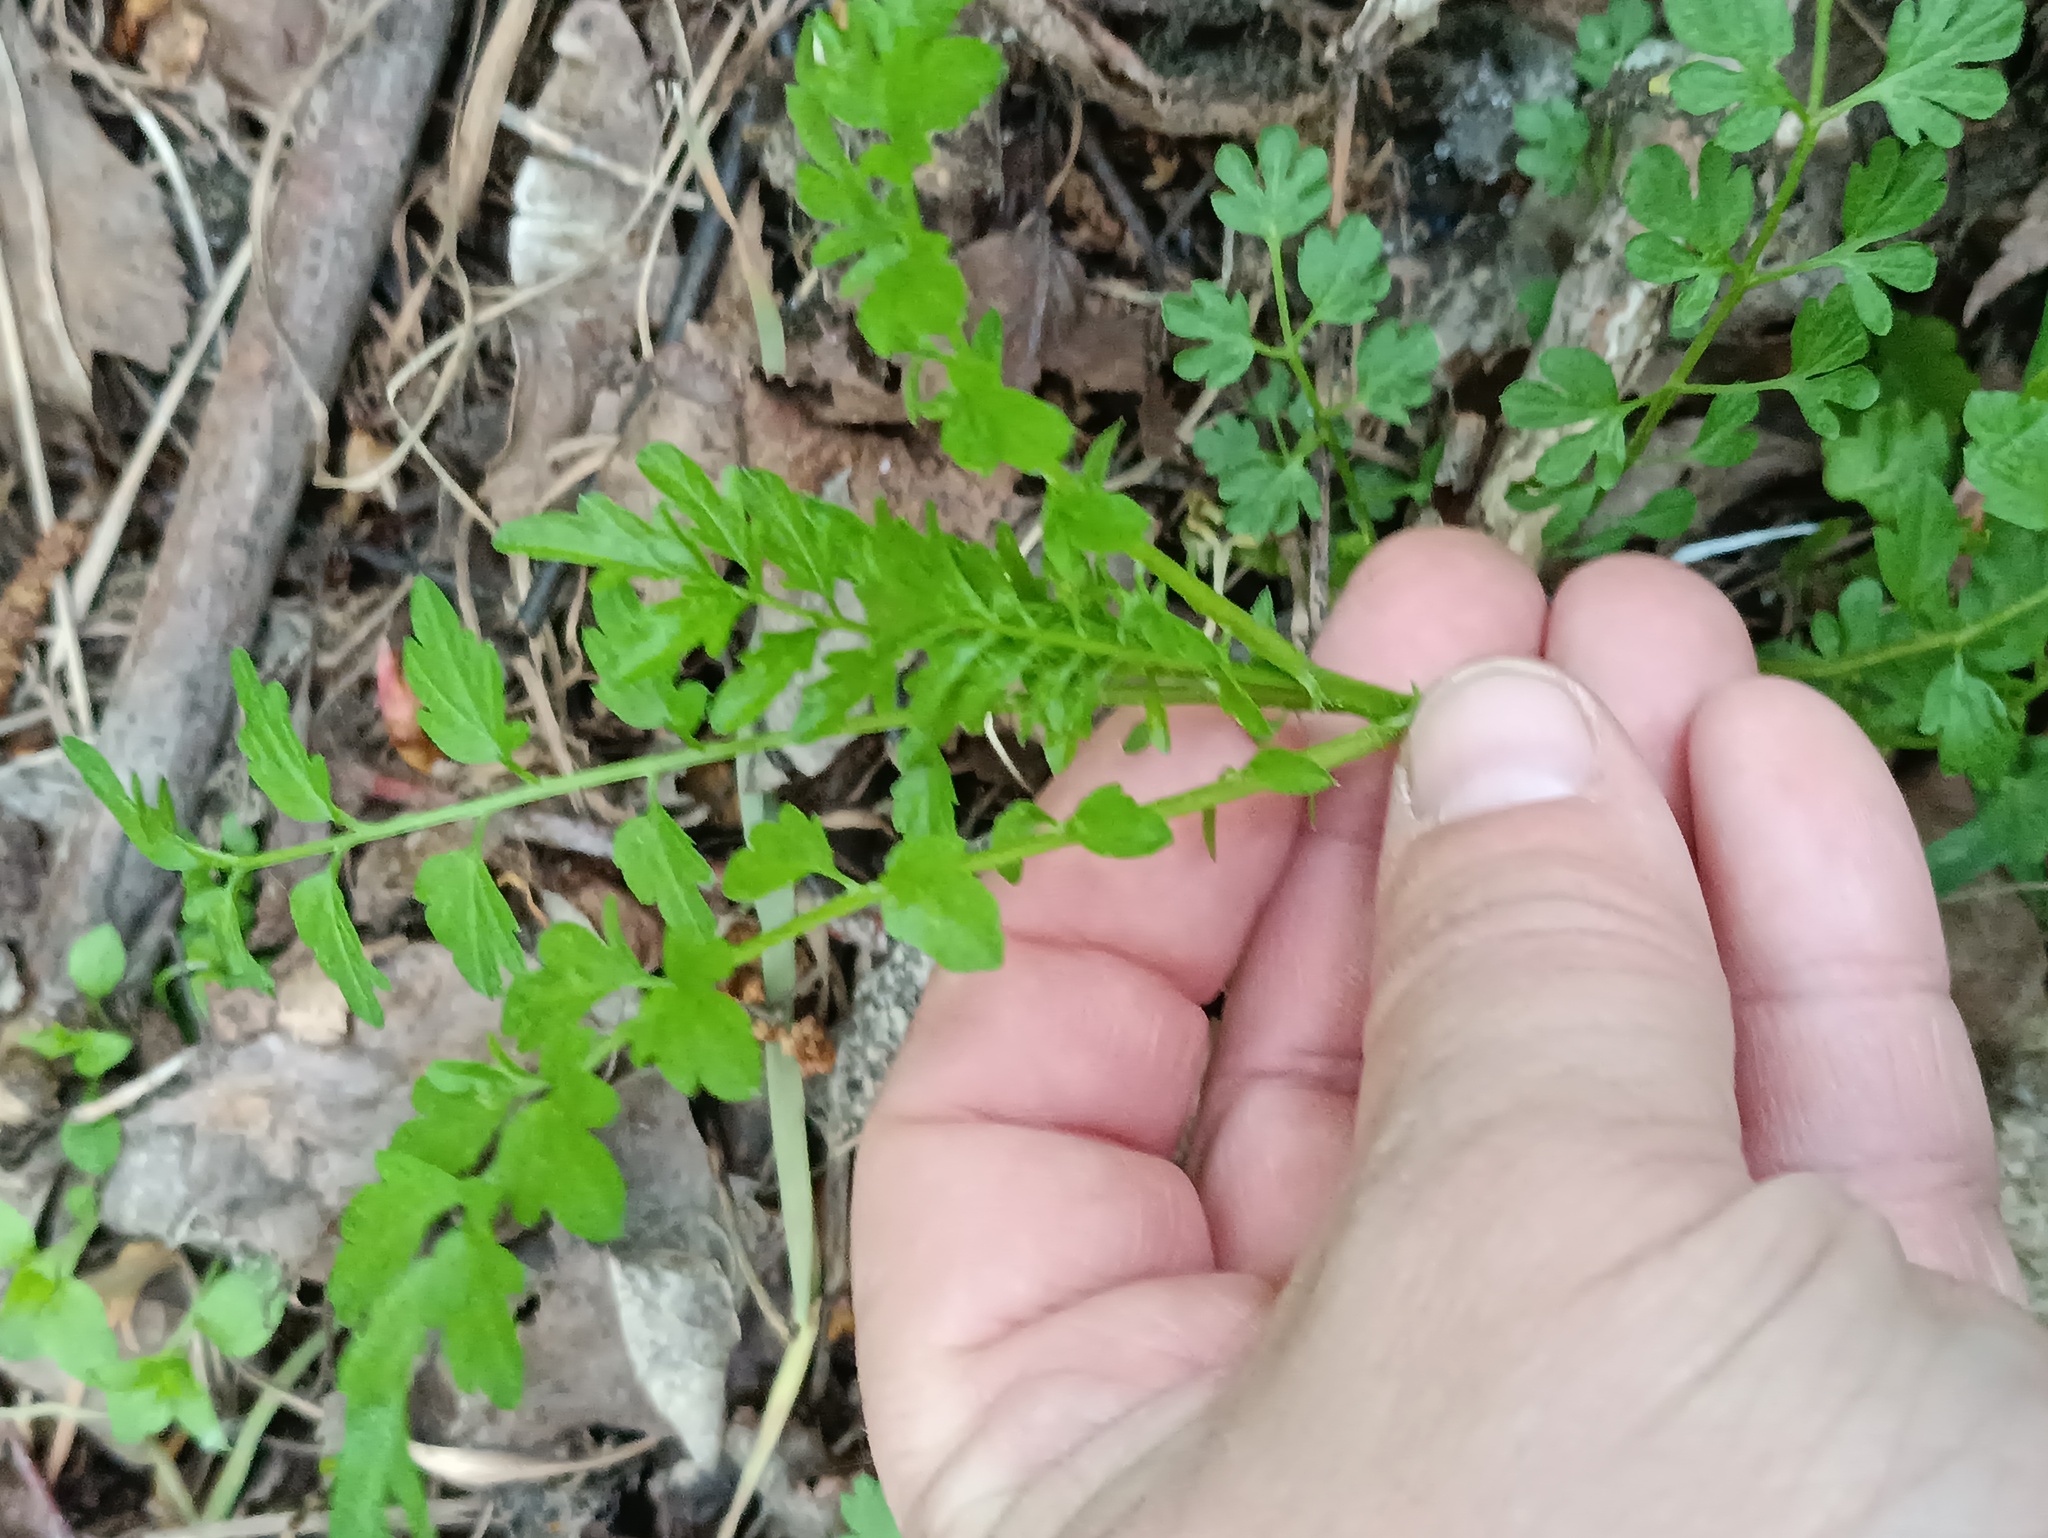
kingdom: Plantae
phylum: Tracheophyta
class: Magnoliopsida
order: Brassicales
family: Brassicaceae
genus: Cardamine
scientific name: Cardamine impatiens
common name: Narrow-leaved bitter-cress
